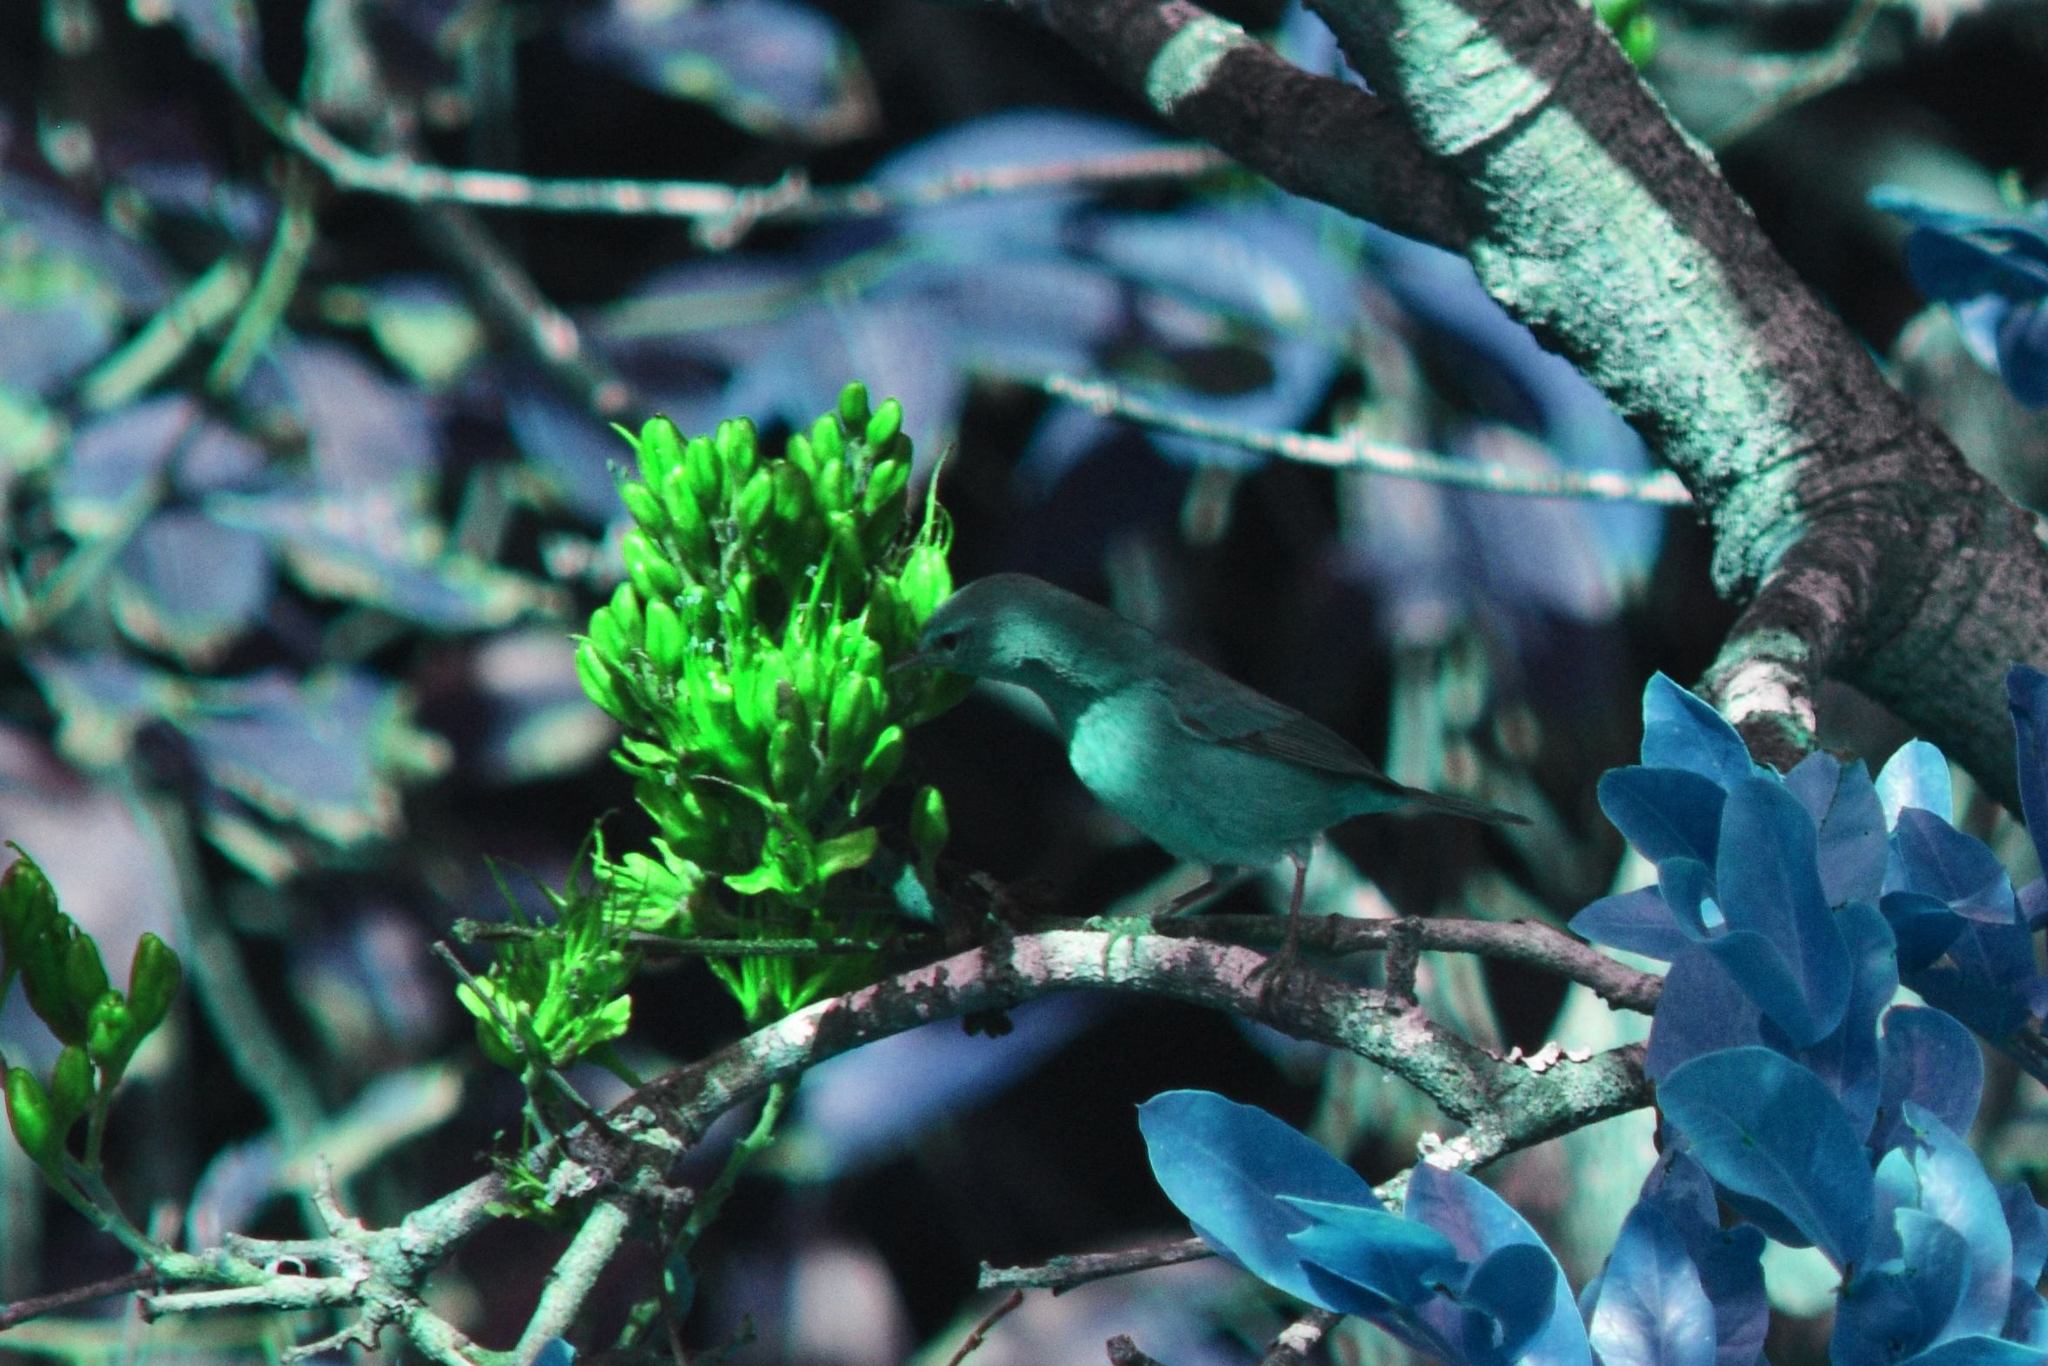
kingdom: Animalia
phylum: Chordata
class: Aves
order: Passeriformes
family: Parulidae
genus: Leiothlypis
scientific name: Leiothlypis celata
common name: Orange-crowned warbler
